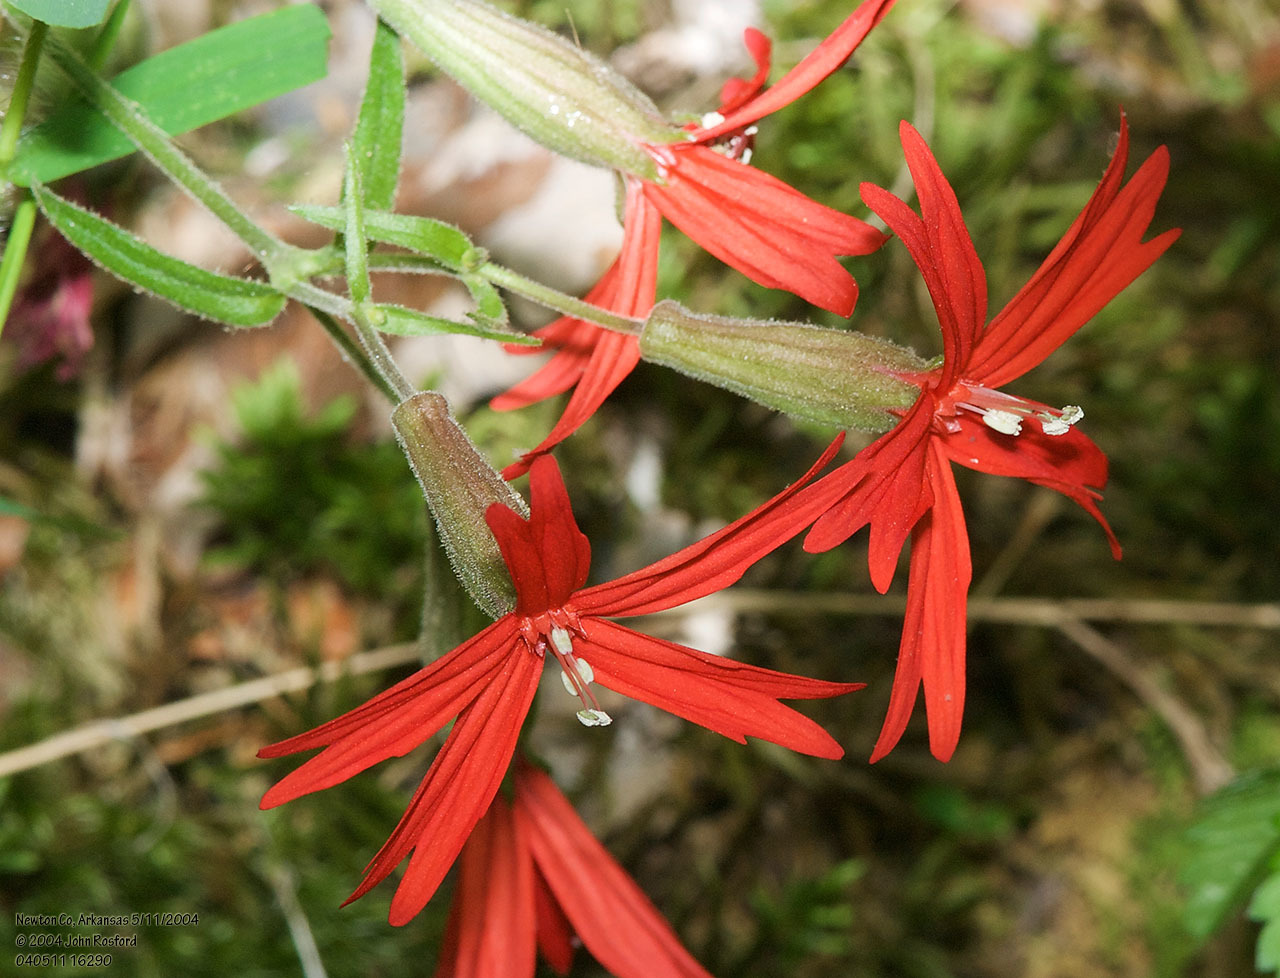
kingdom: Plantae
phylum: Tracheophyta
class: Magnoliopsida
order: Caryophyllales
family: Caryophyllaceae
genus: Silene
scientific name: Silene virginica
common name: Fire-pink
